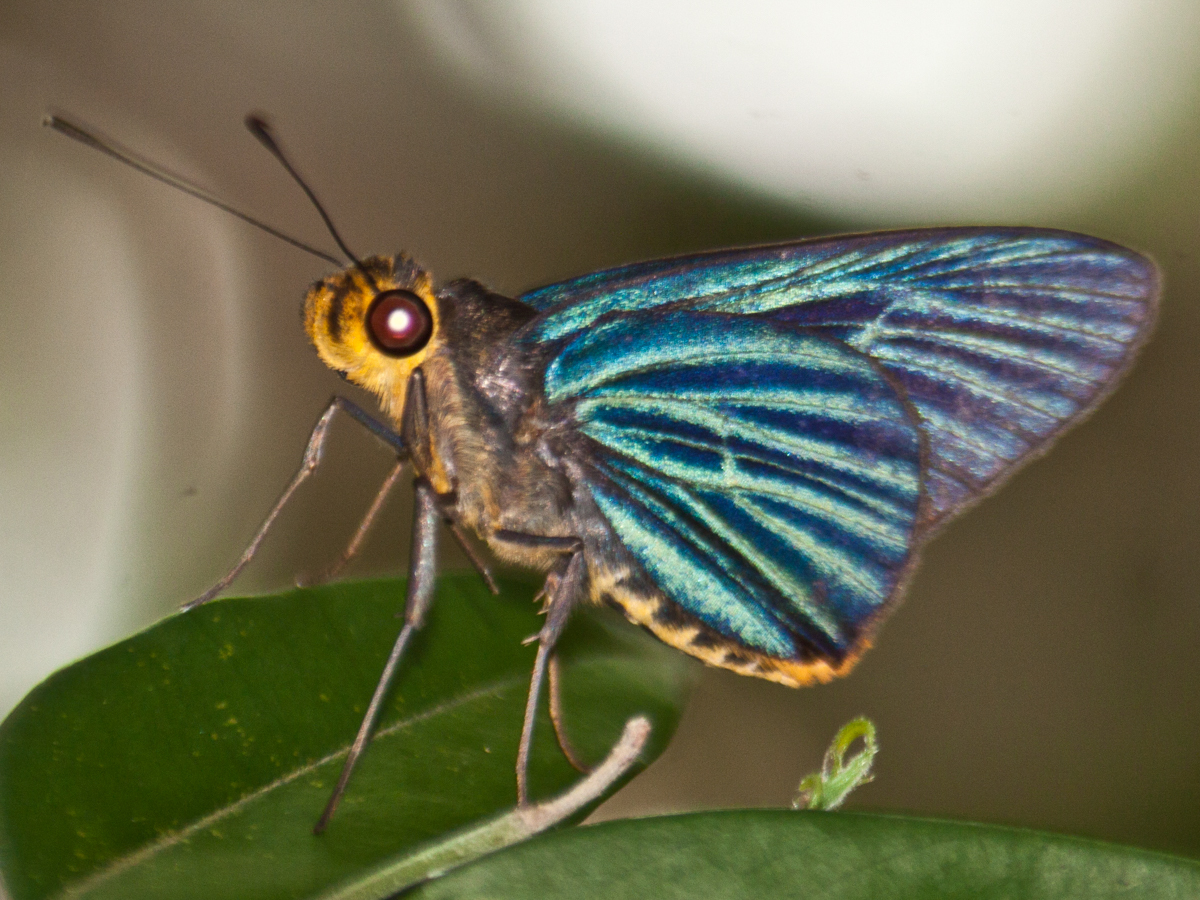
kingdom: Animalia
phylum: Arthropoda
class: Insecta
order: Lepidoptera
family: Hesperiidae
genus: Pirdana
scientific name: Pirdana hyela
